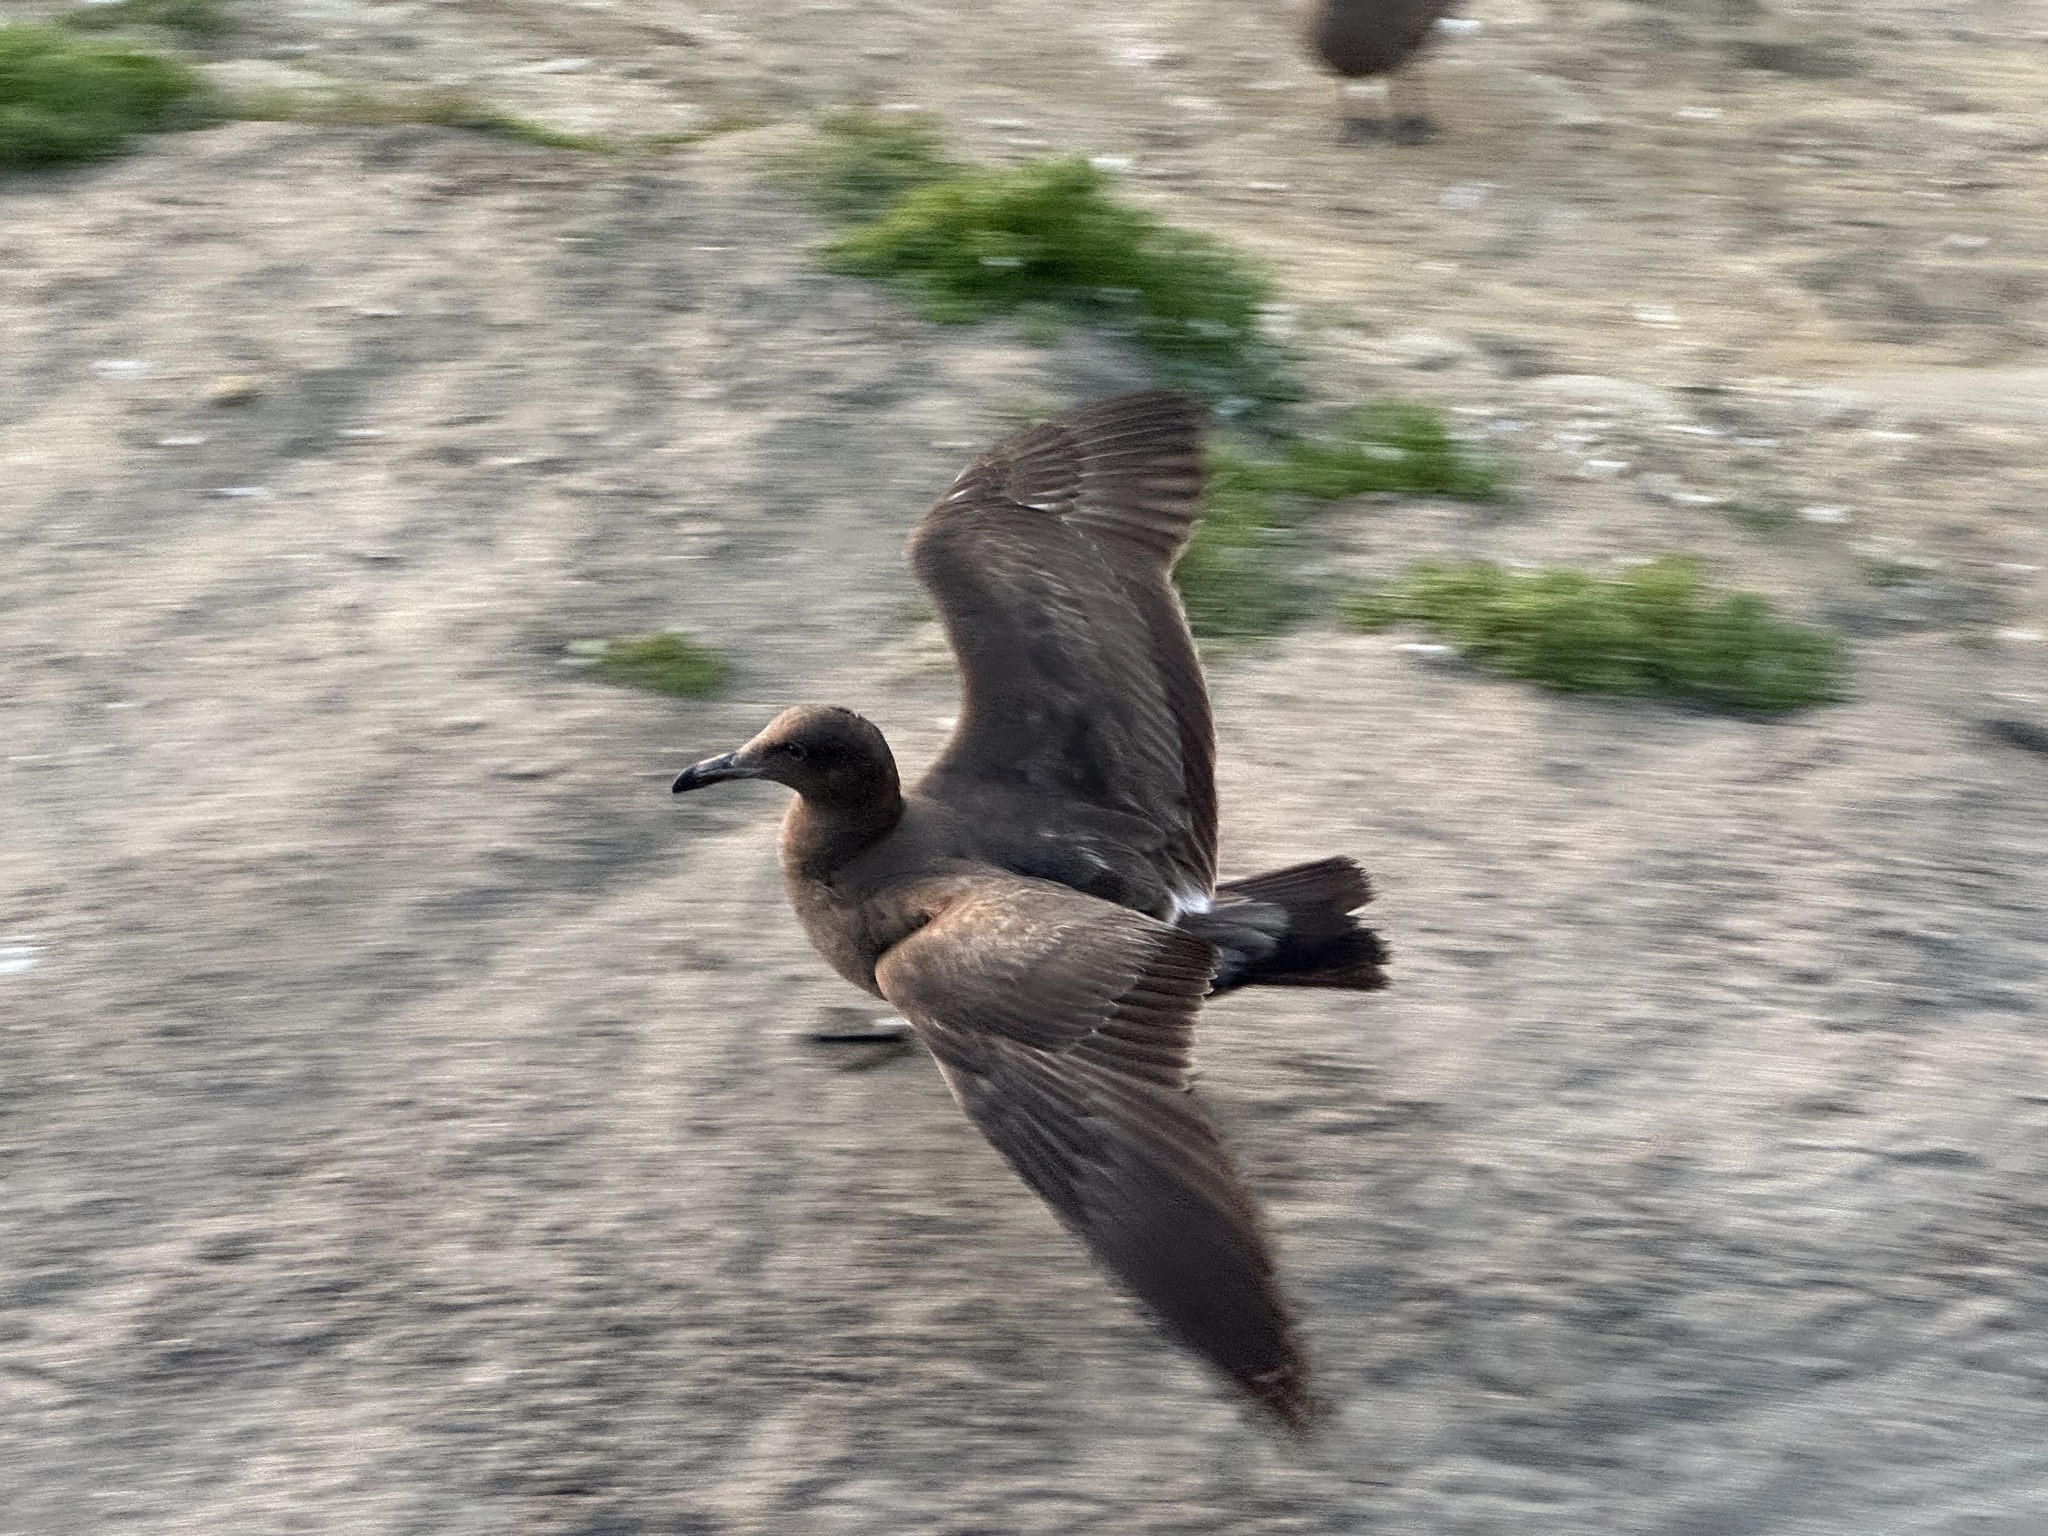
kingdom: Animalia
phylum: Chordata
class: Aves
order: Charadriiformes
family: Laridae
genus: Larus
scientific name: Larus heermanni
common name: Heermann's gull
